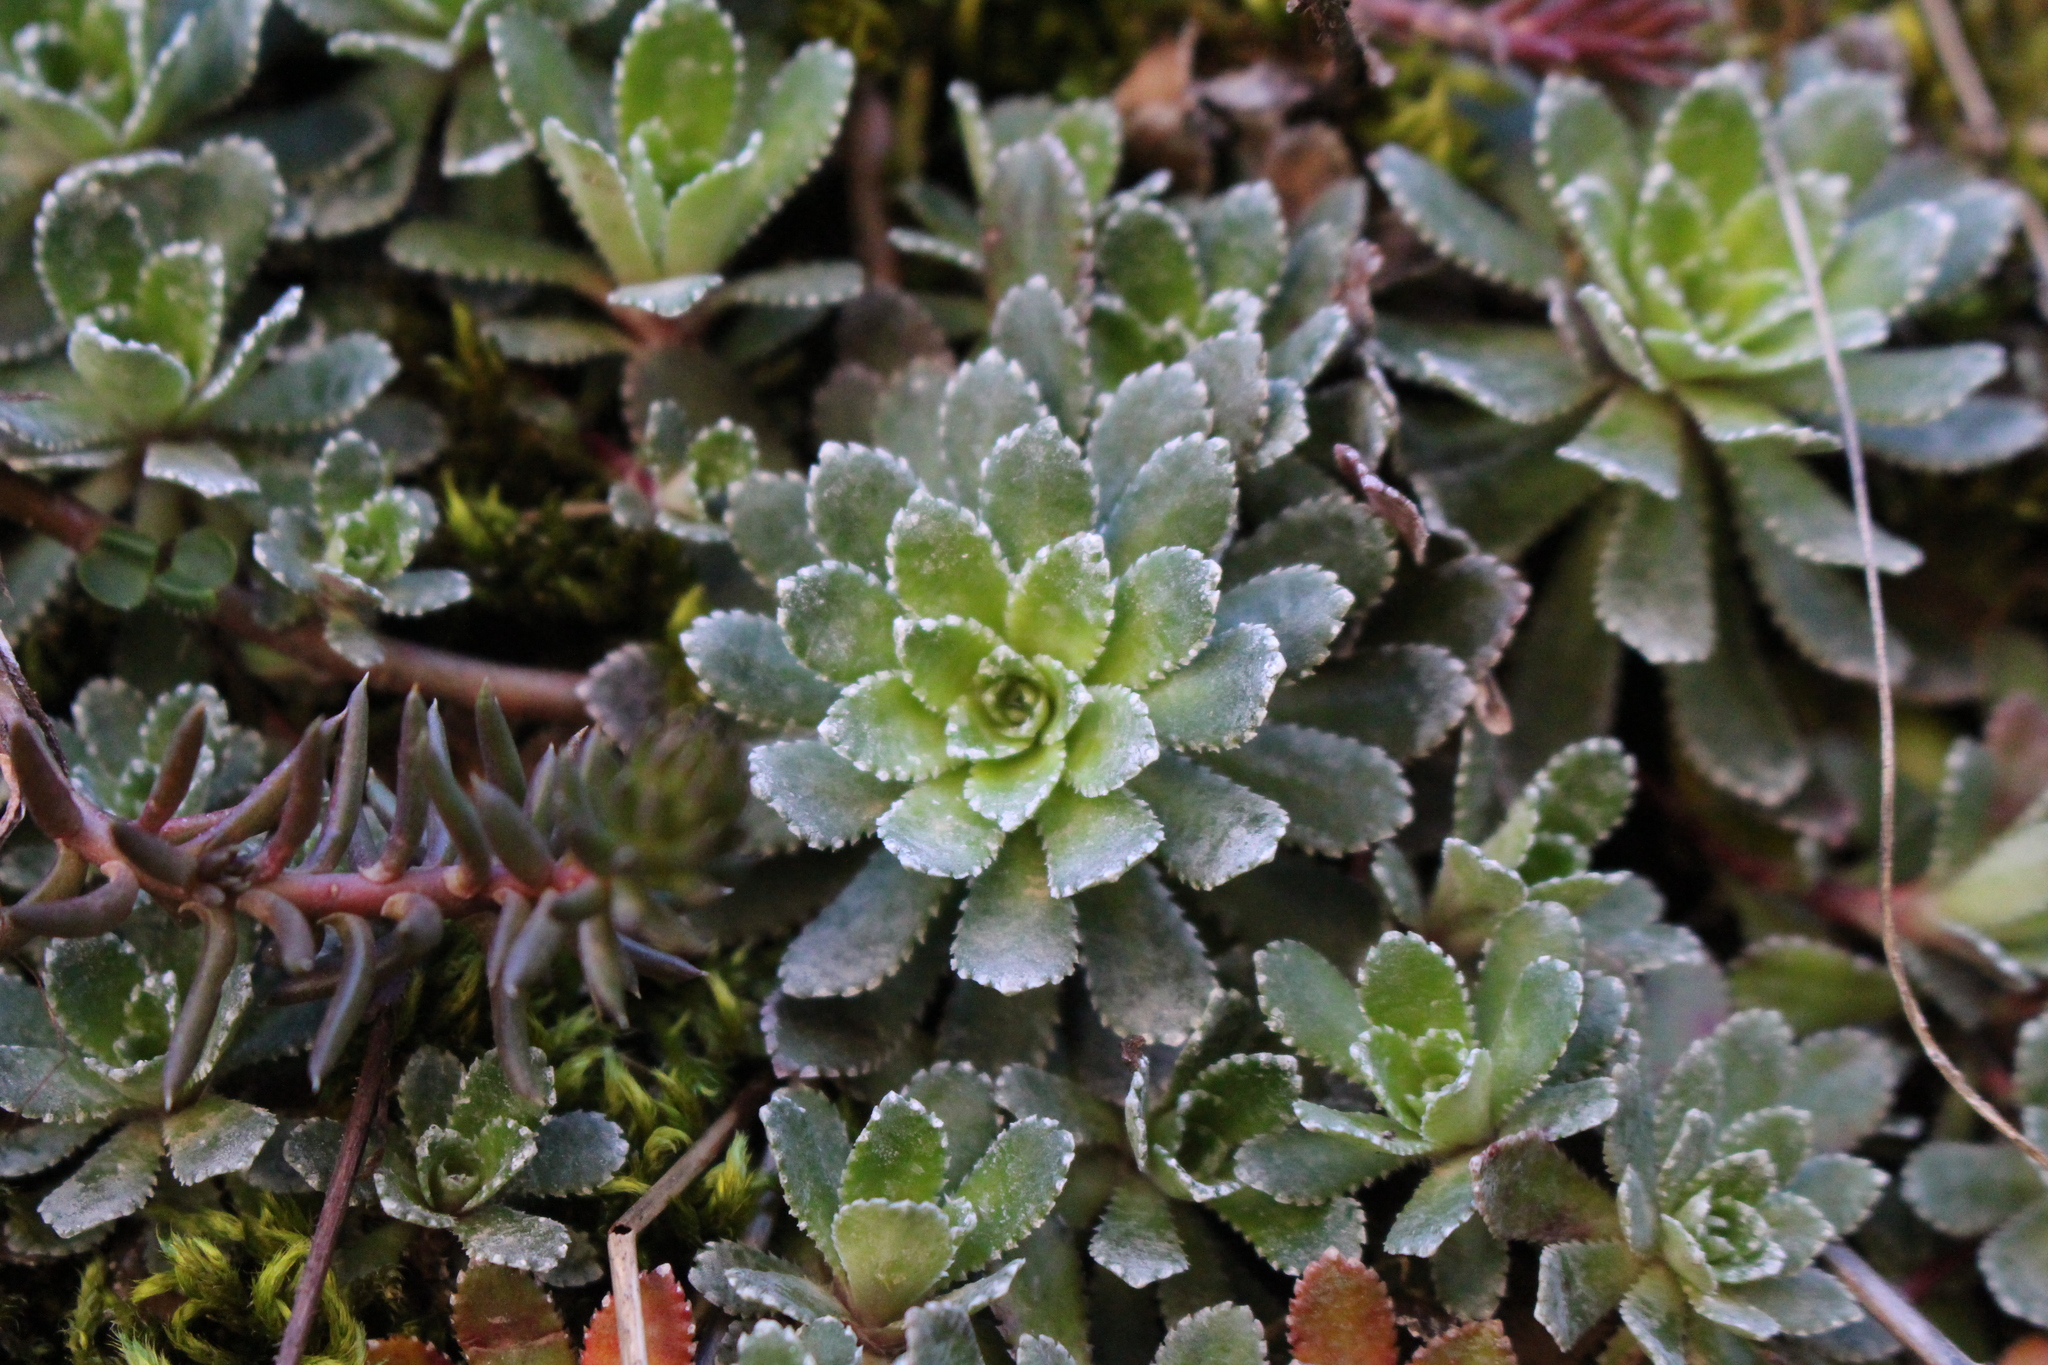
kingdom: Plantae
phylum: Tracheophyta
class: Magnoliopsida
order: Saxifragales
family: Saxifragaceae
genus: Saxifraga
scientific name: Saxifraga paniculata
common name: Livelong saxifrage
